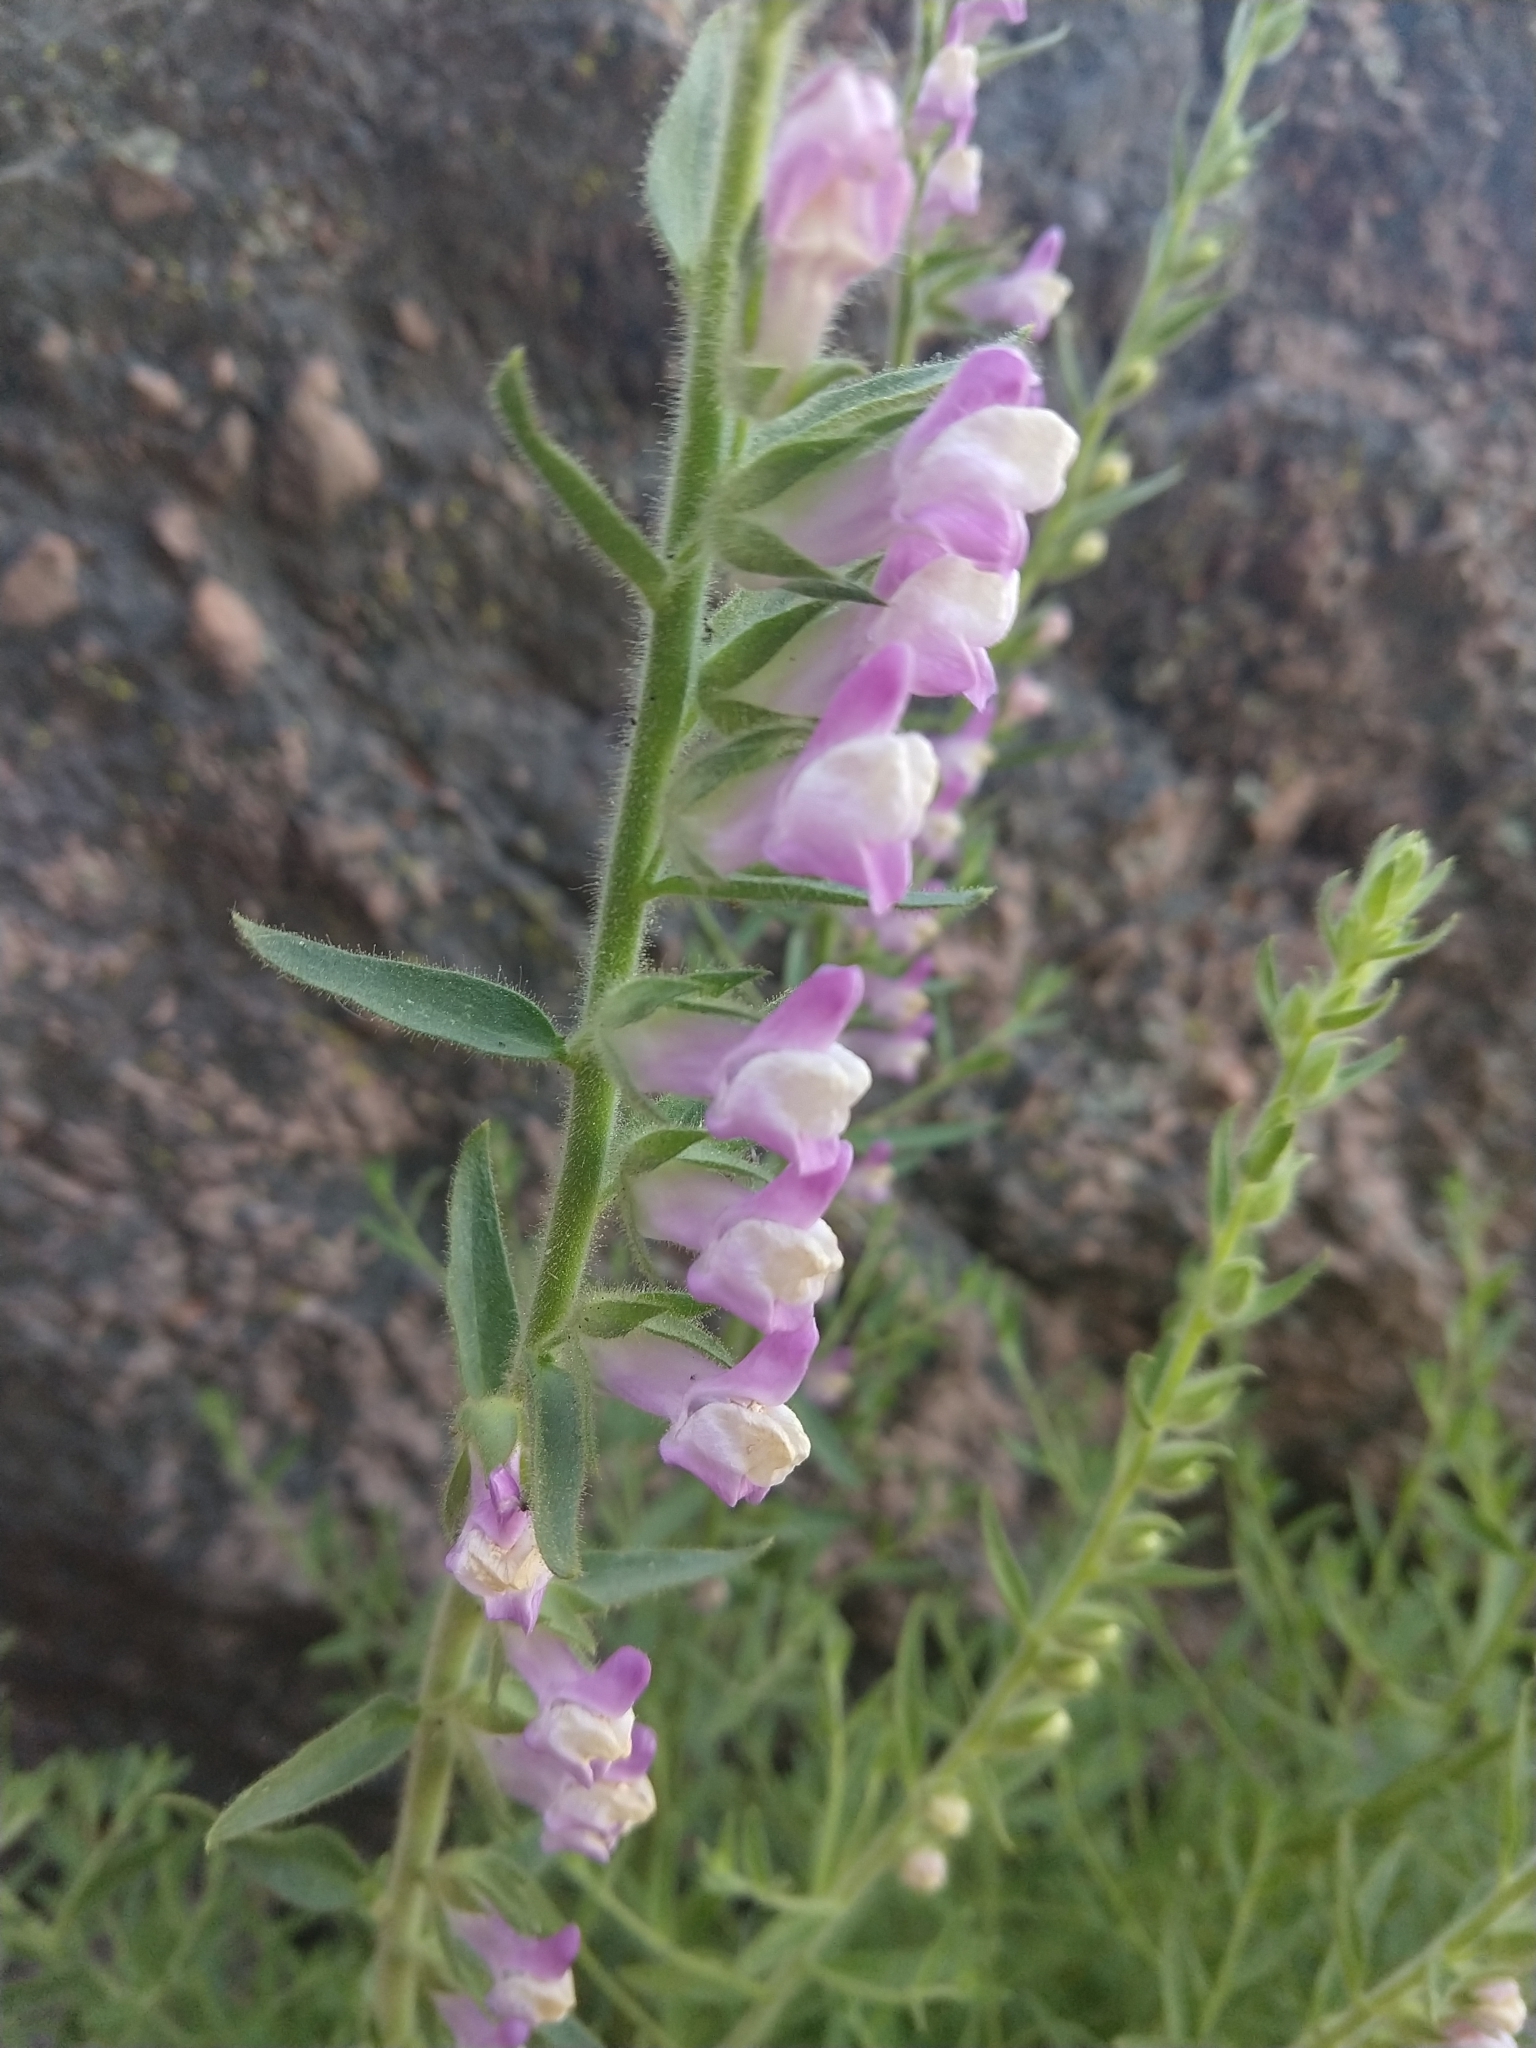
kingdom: Plantae
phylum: Tracheophyta
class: Magnoliopsida
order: Lamiales
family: Plantaginaceae
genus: Sairocarpus
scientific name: Sairocarpus multiflorus
